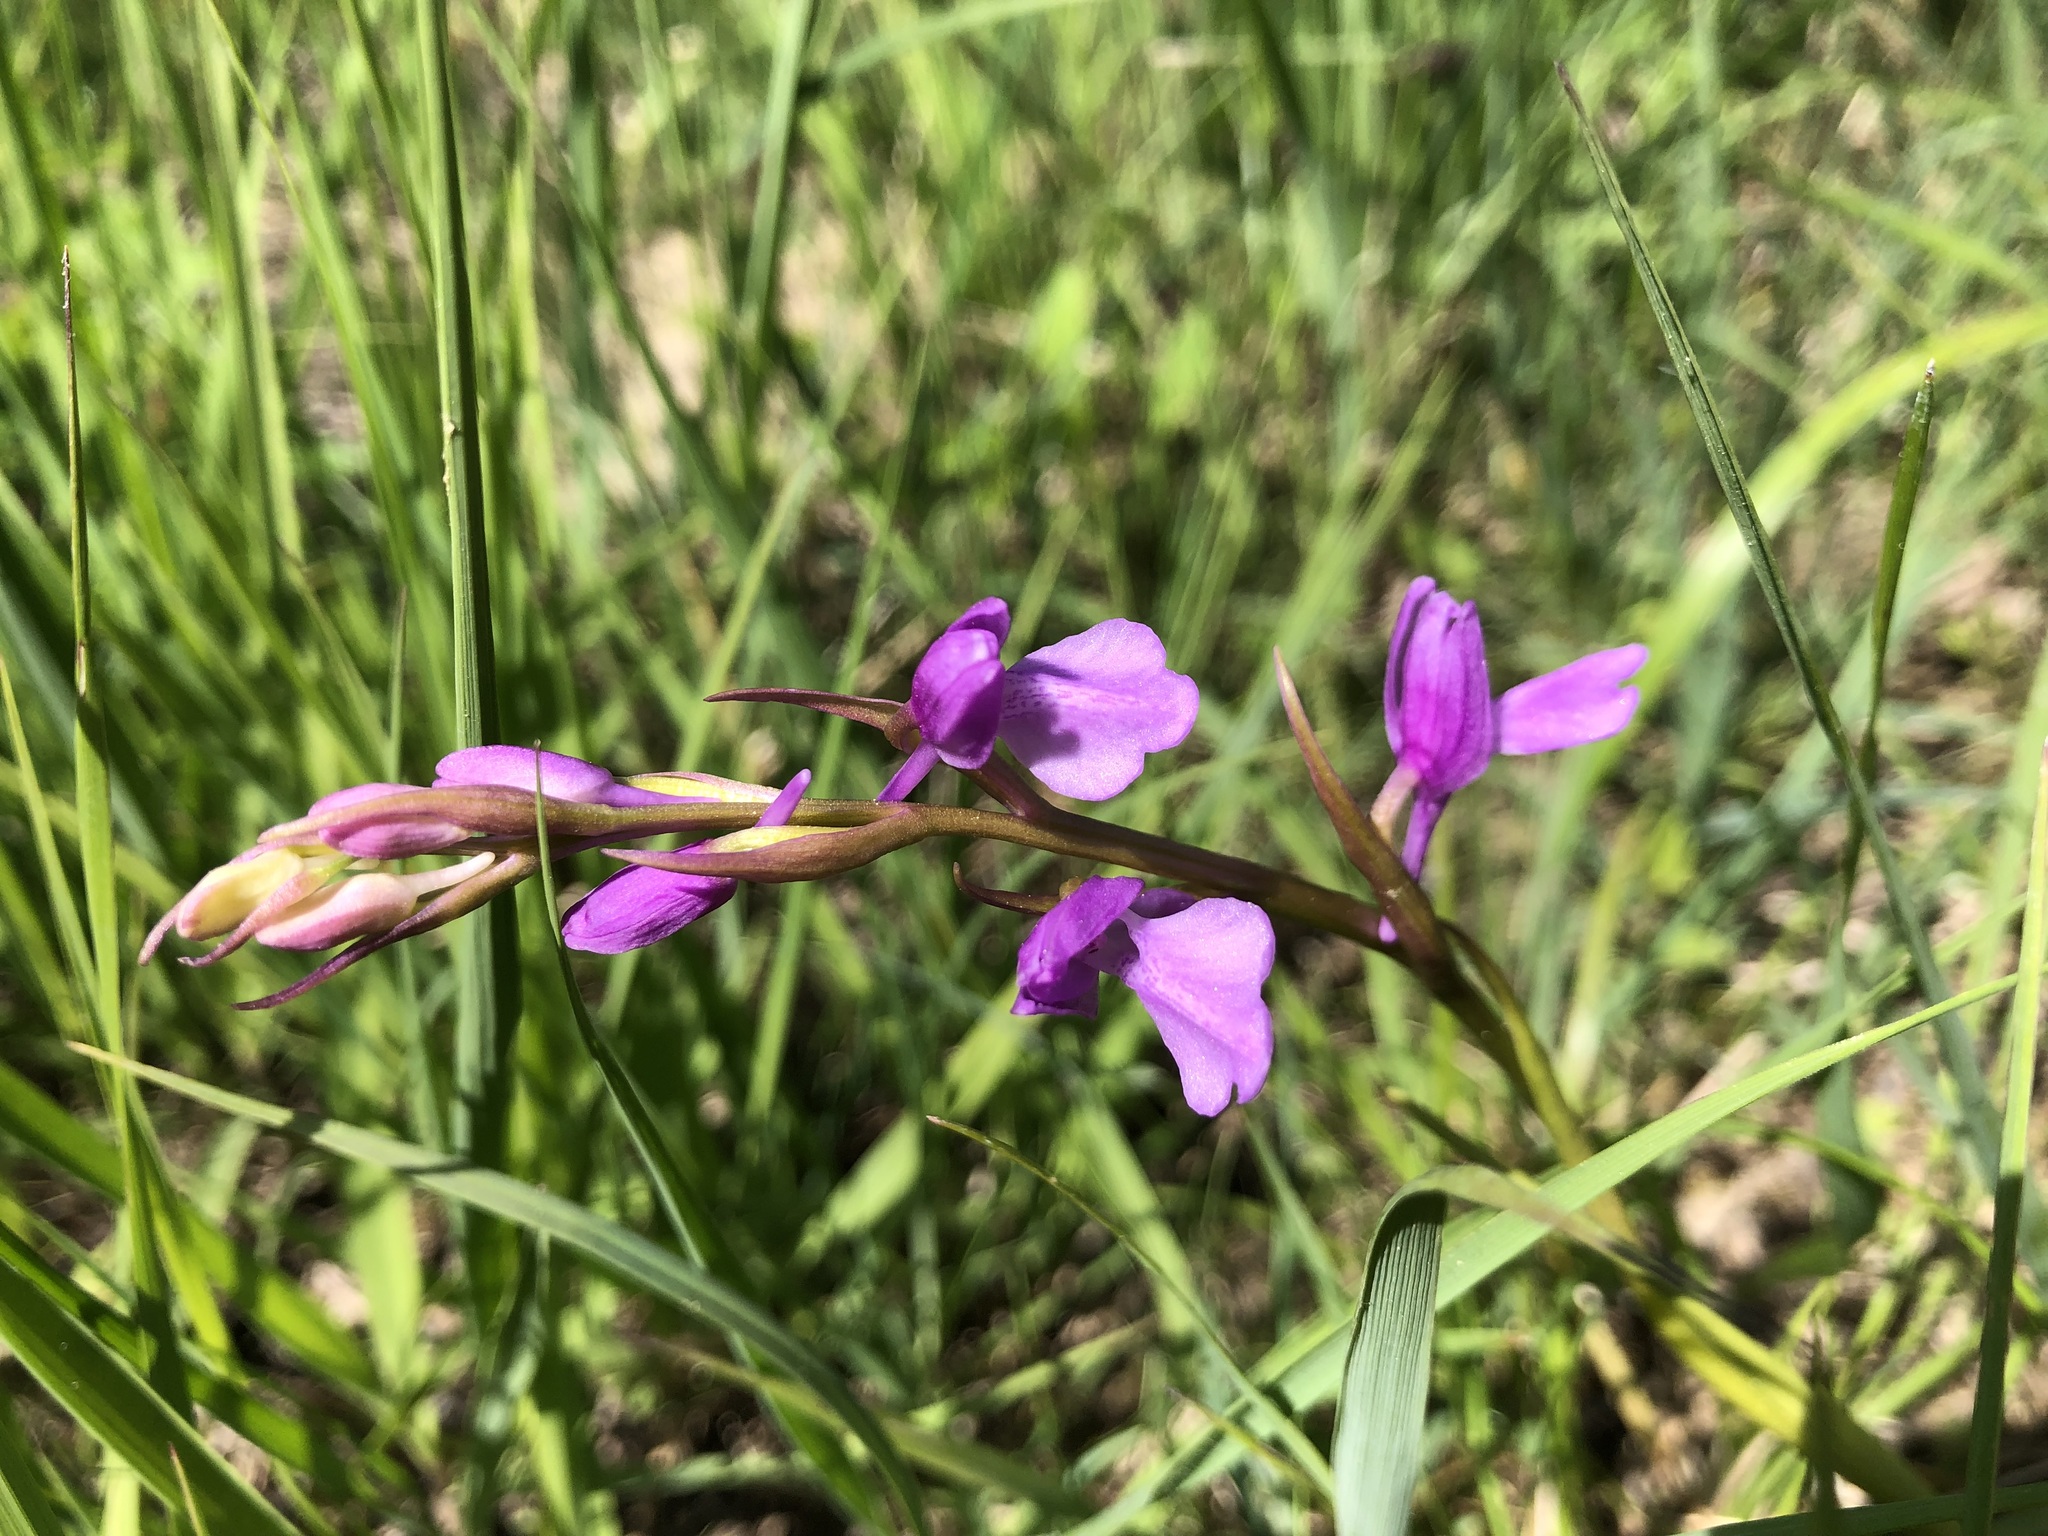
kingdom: Plantae
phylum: Tracheophyta
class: Liliopsida
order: Asparagales
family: Orchidaceae
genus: Anacamptis
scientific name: Anacamptis palustris
